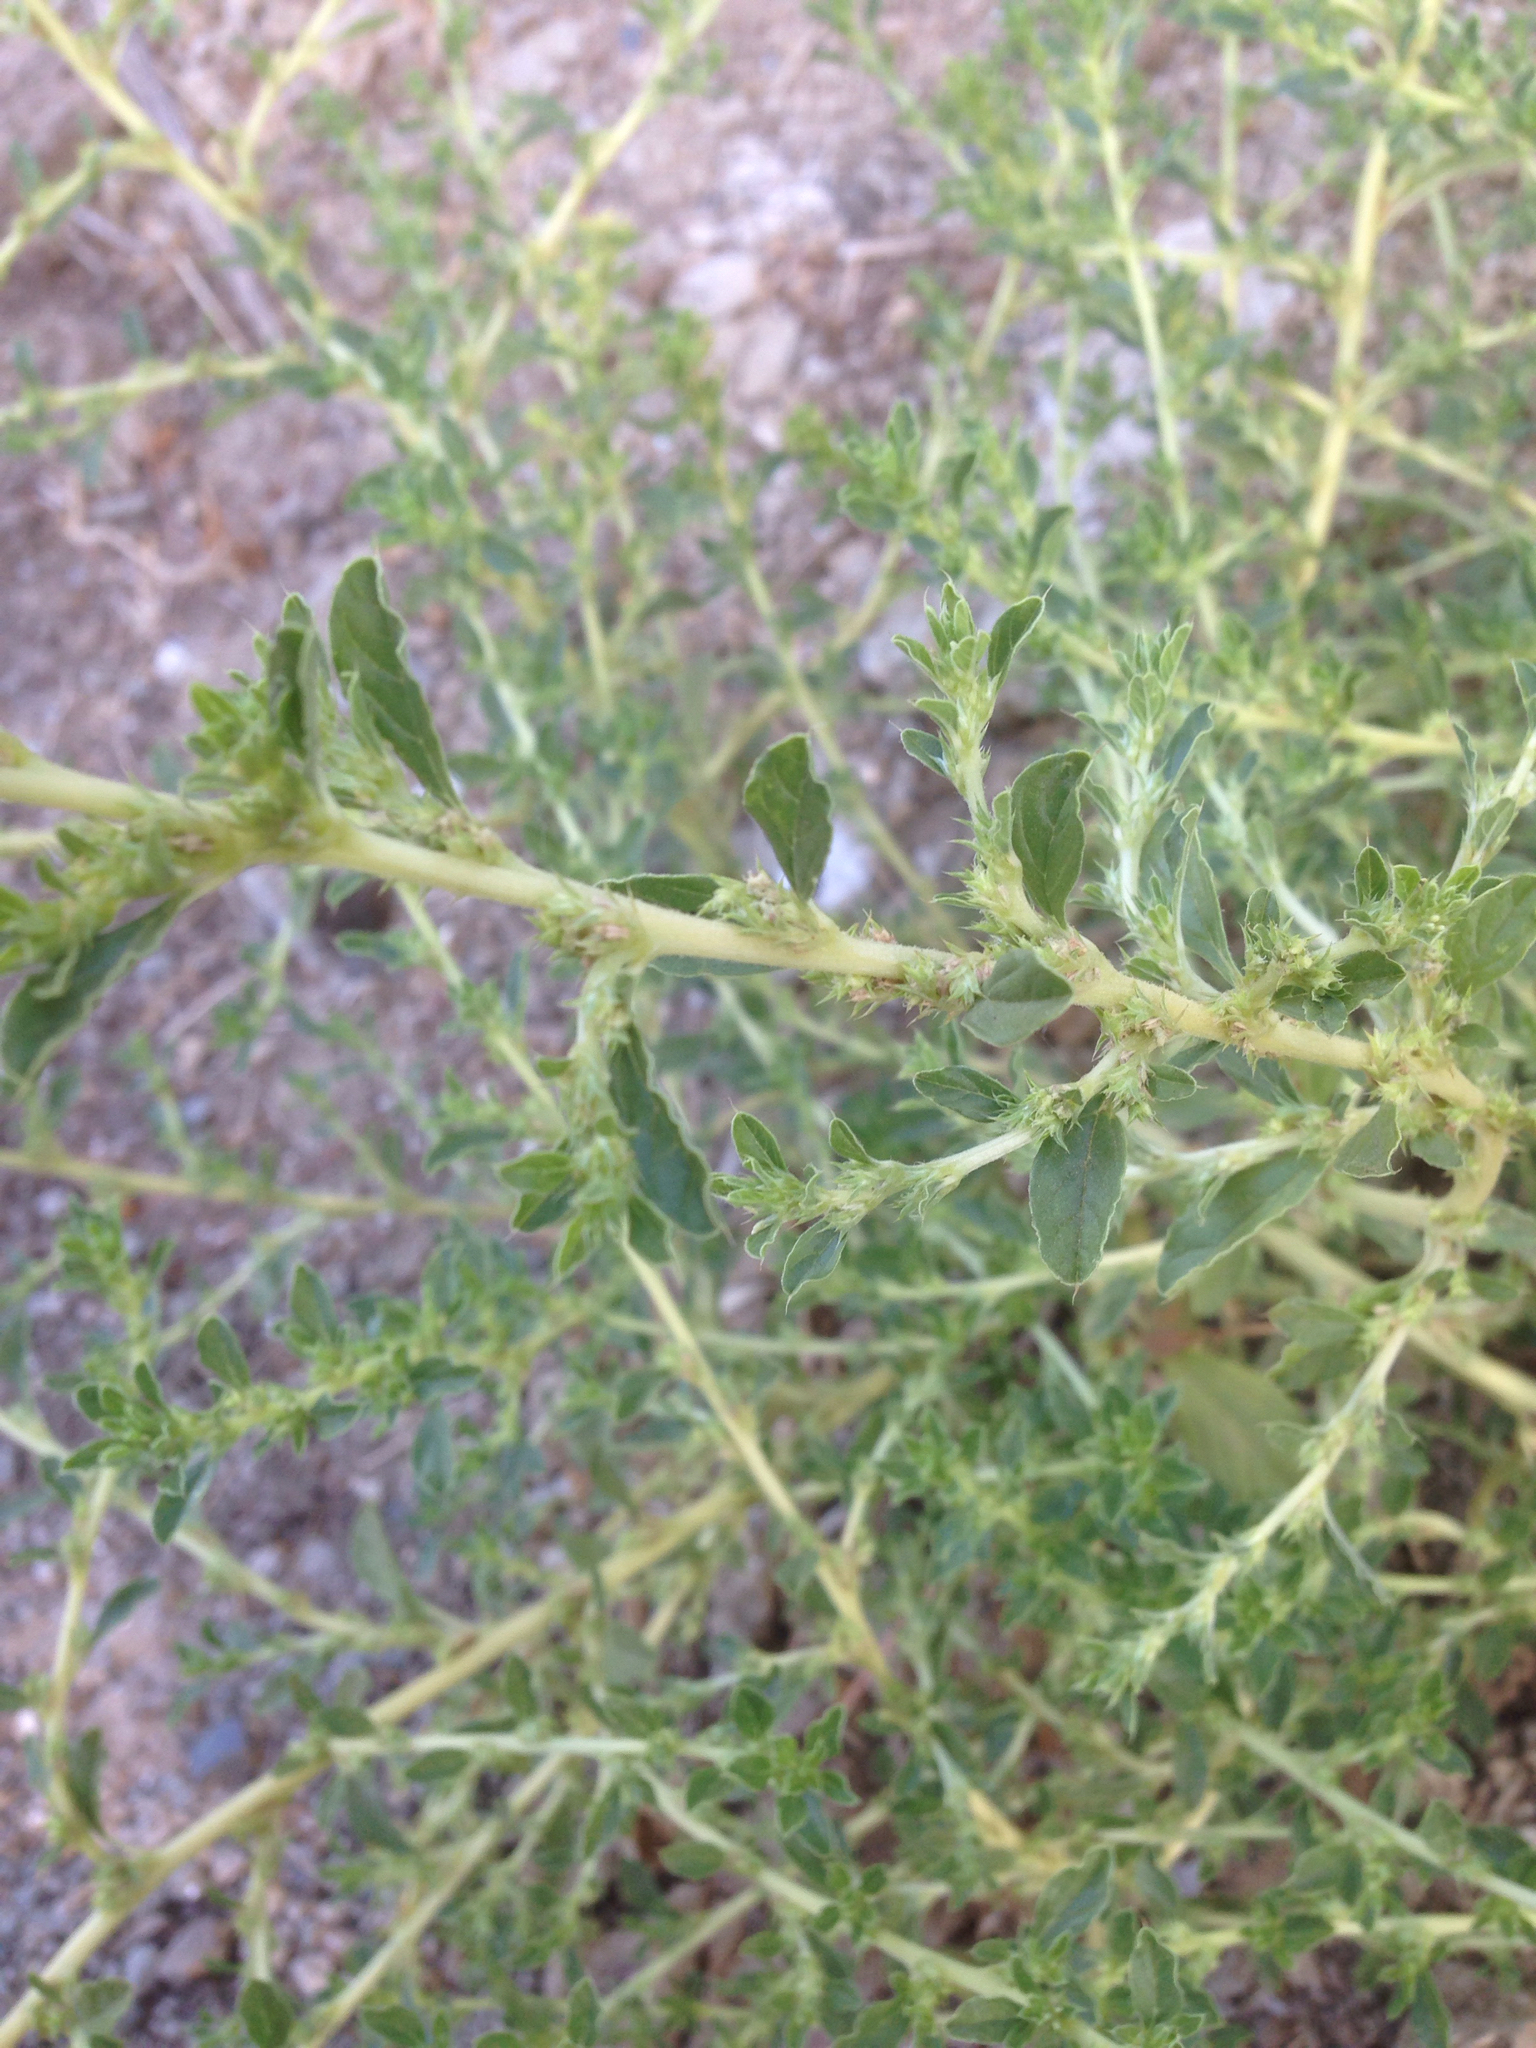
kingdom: Plantae
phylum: Tracheophyta
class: Magnoliopsida
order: Caryophyllales
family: Amaranthaceae
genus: Amaranthus
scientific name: Amaranthus albus
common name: White pigweed
